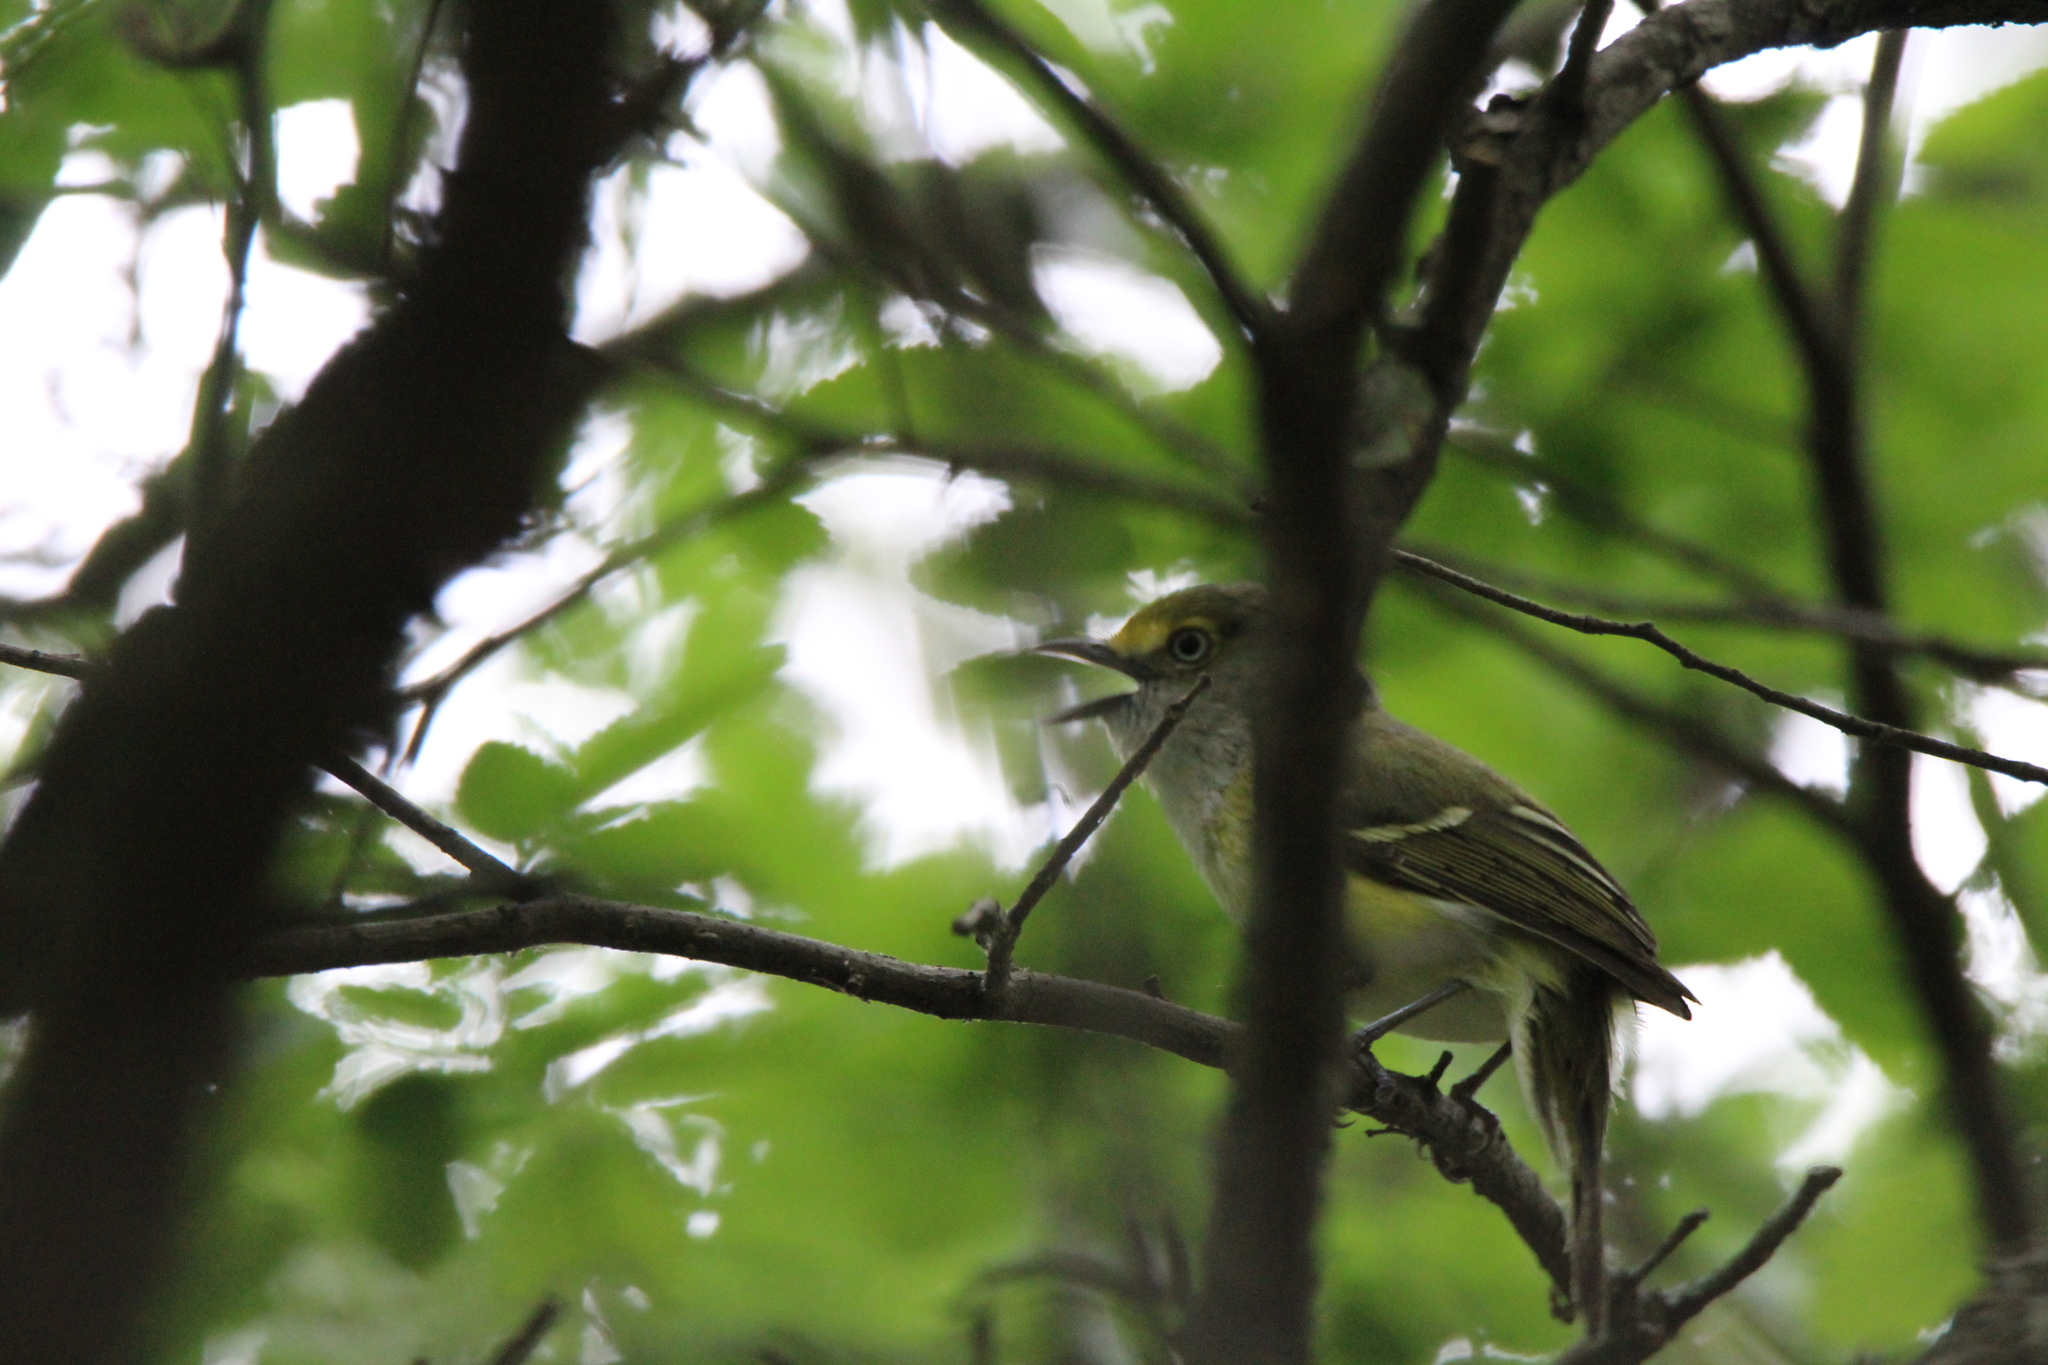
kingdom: Animalia
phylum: Chordata
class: Aves
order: Passeriformes
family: Vireonidae
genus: Vireo
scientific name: Vireo griseus
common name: White-eyed vireo
